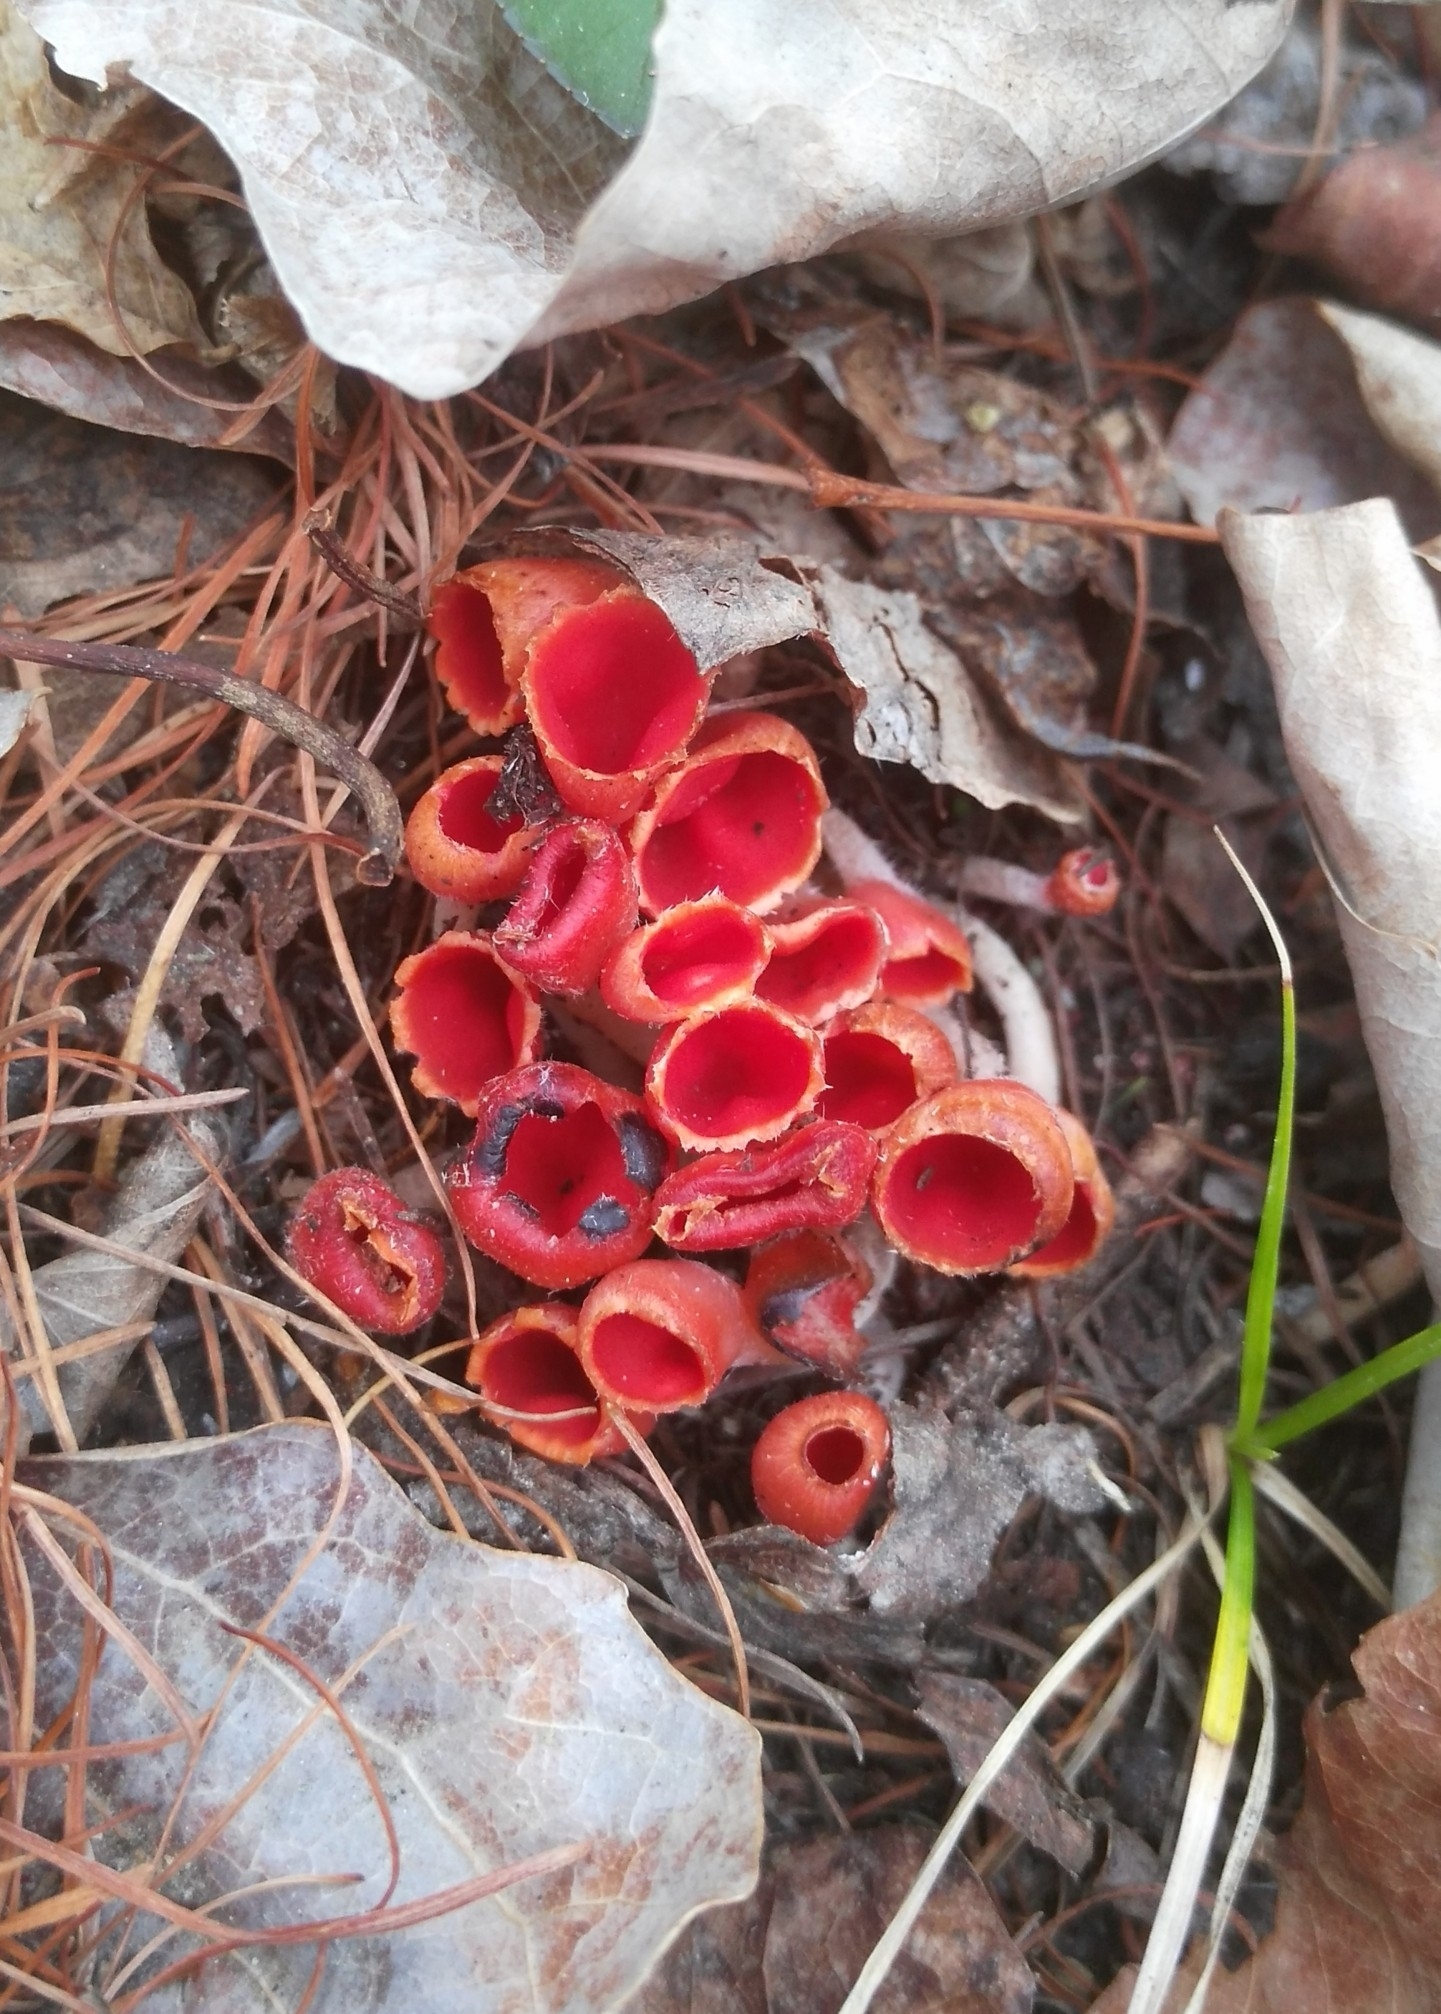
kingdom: Fungi
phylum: Ascomycota
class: Pezizomycetes
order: Pezizales
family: Sarcoscyphaceae
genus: Microstoma
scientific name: Microstoma protractum
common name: Rosy goblet
